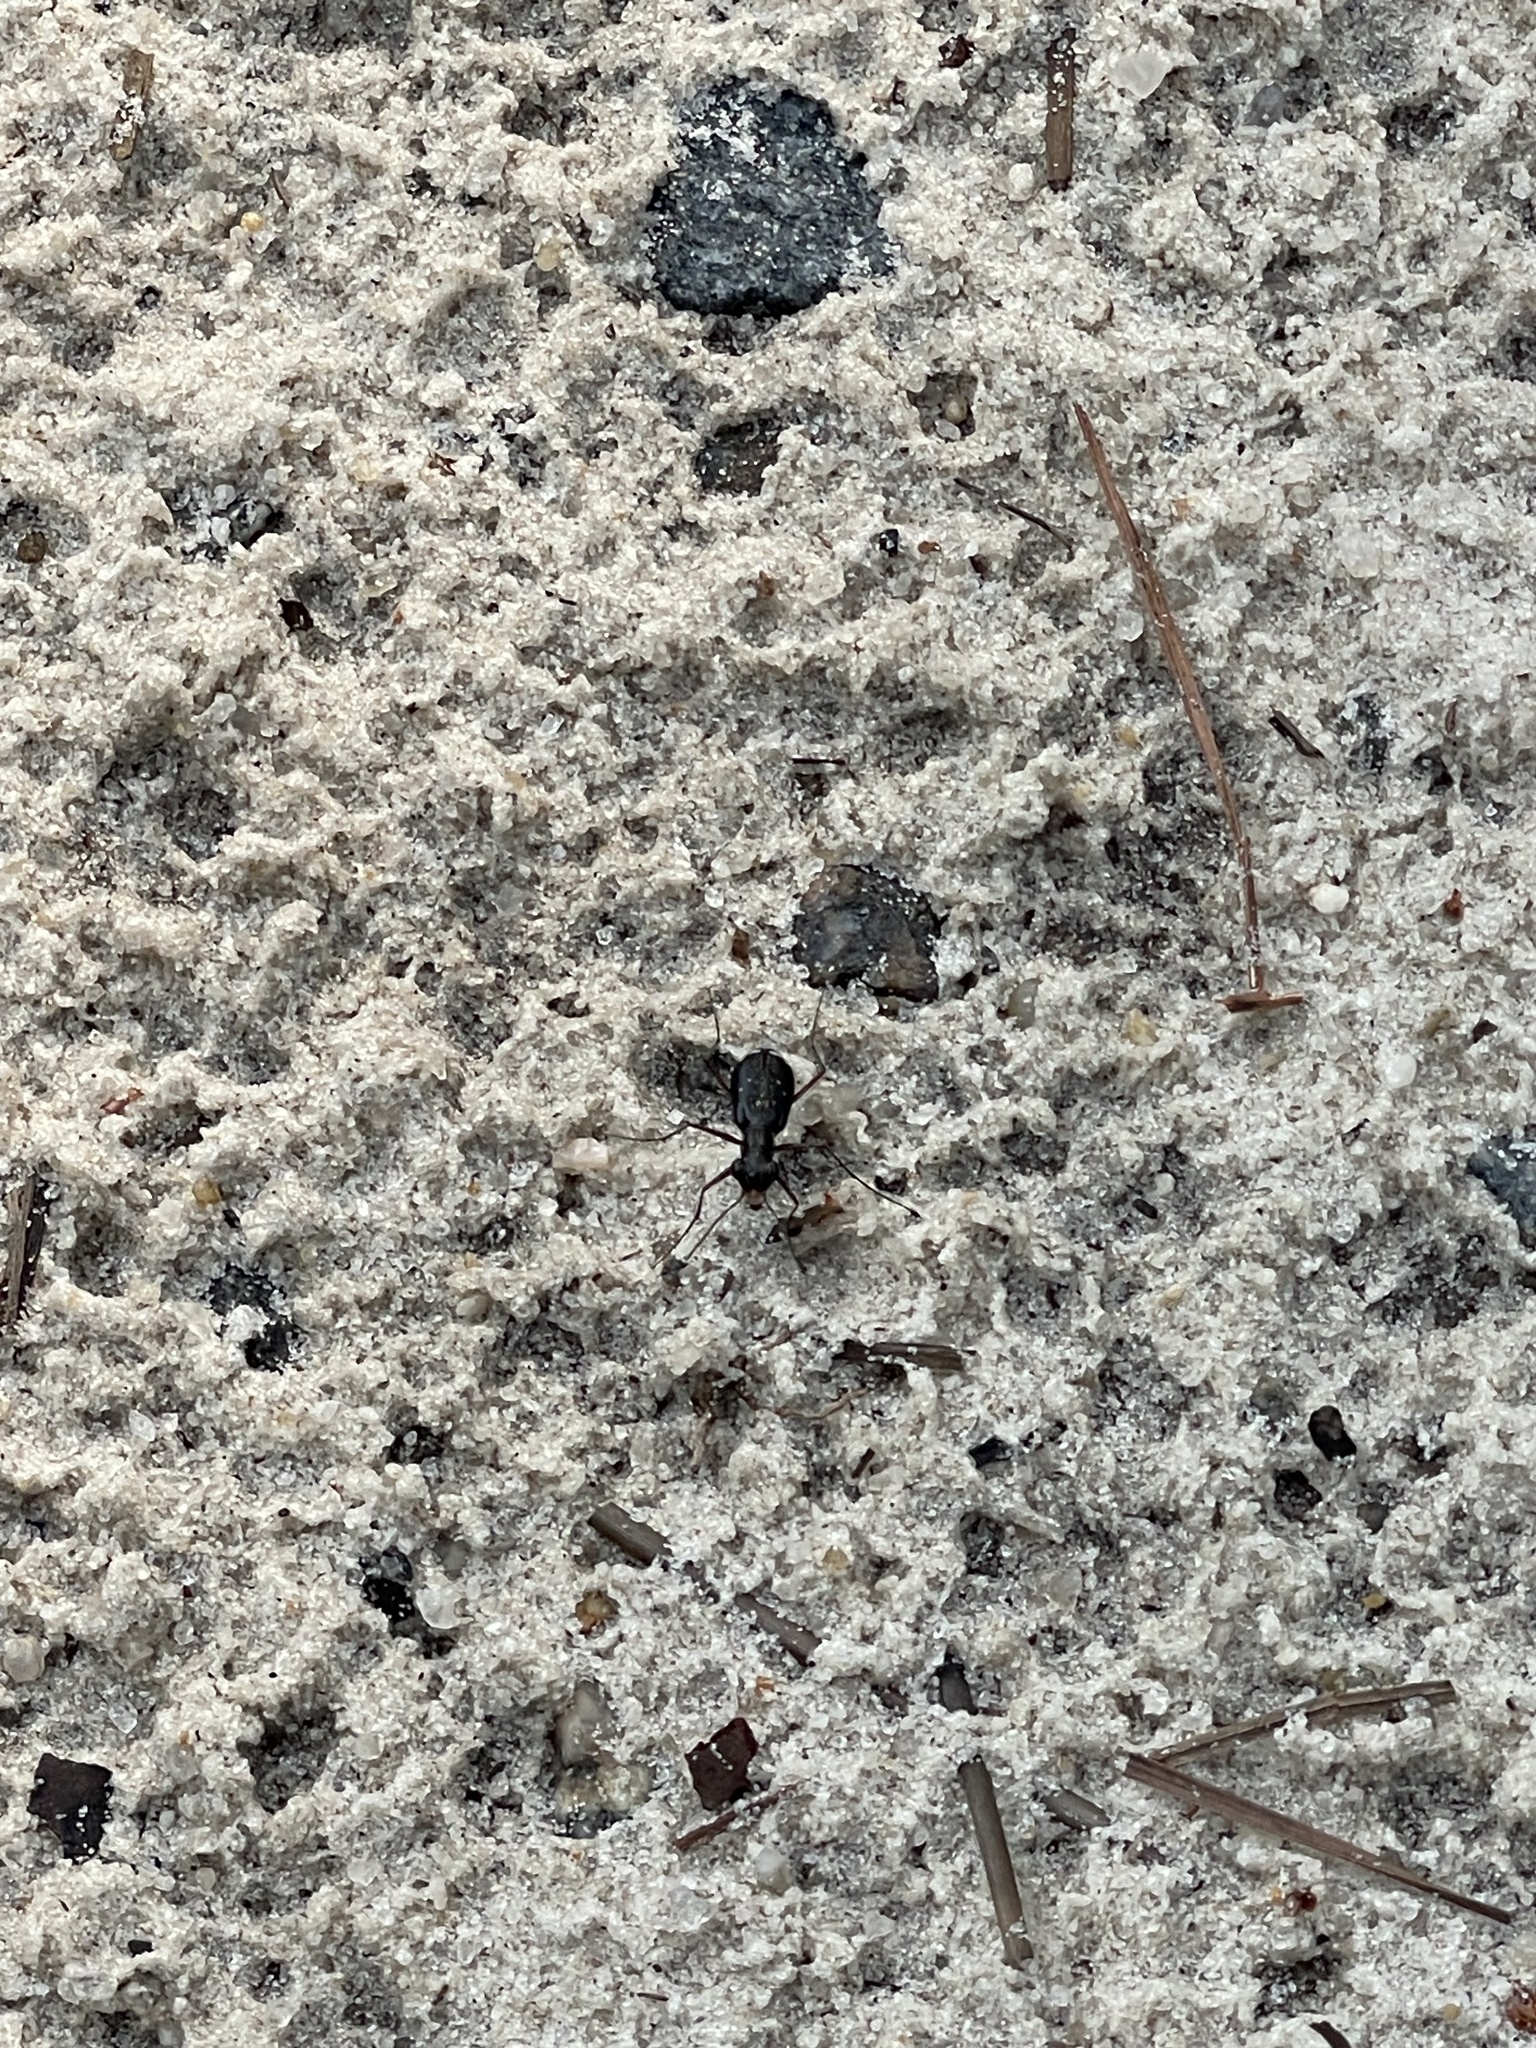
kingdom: Animalia
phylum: Arthropoda
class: Insecta
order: Coleoptera
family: Carabidae
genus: Cicindela
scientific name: Cicindela abdominalis
